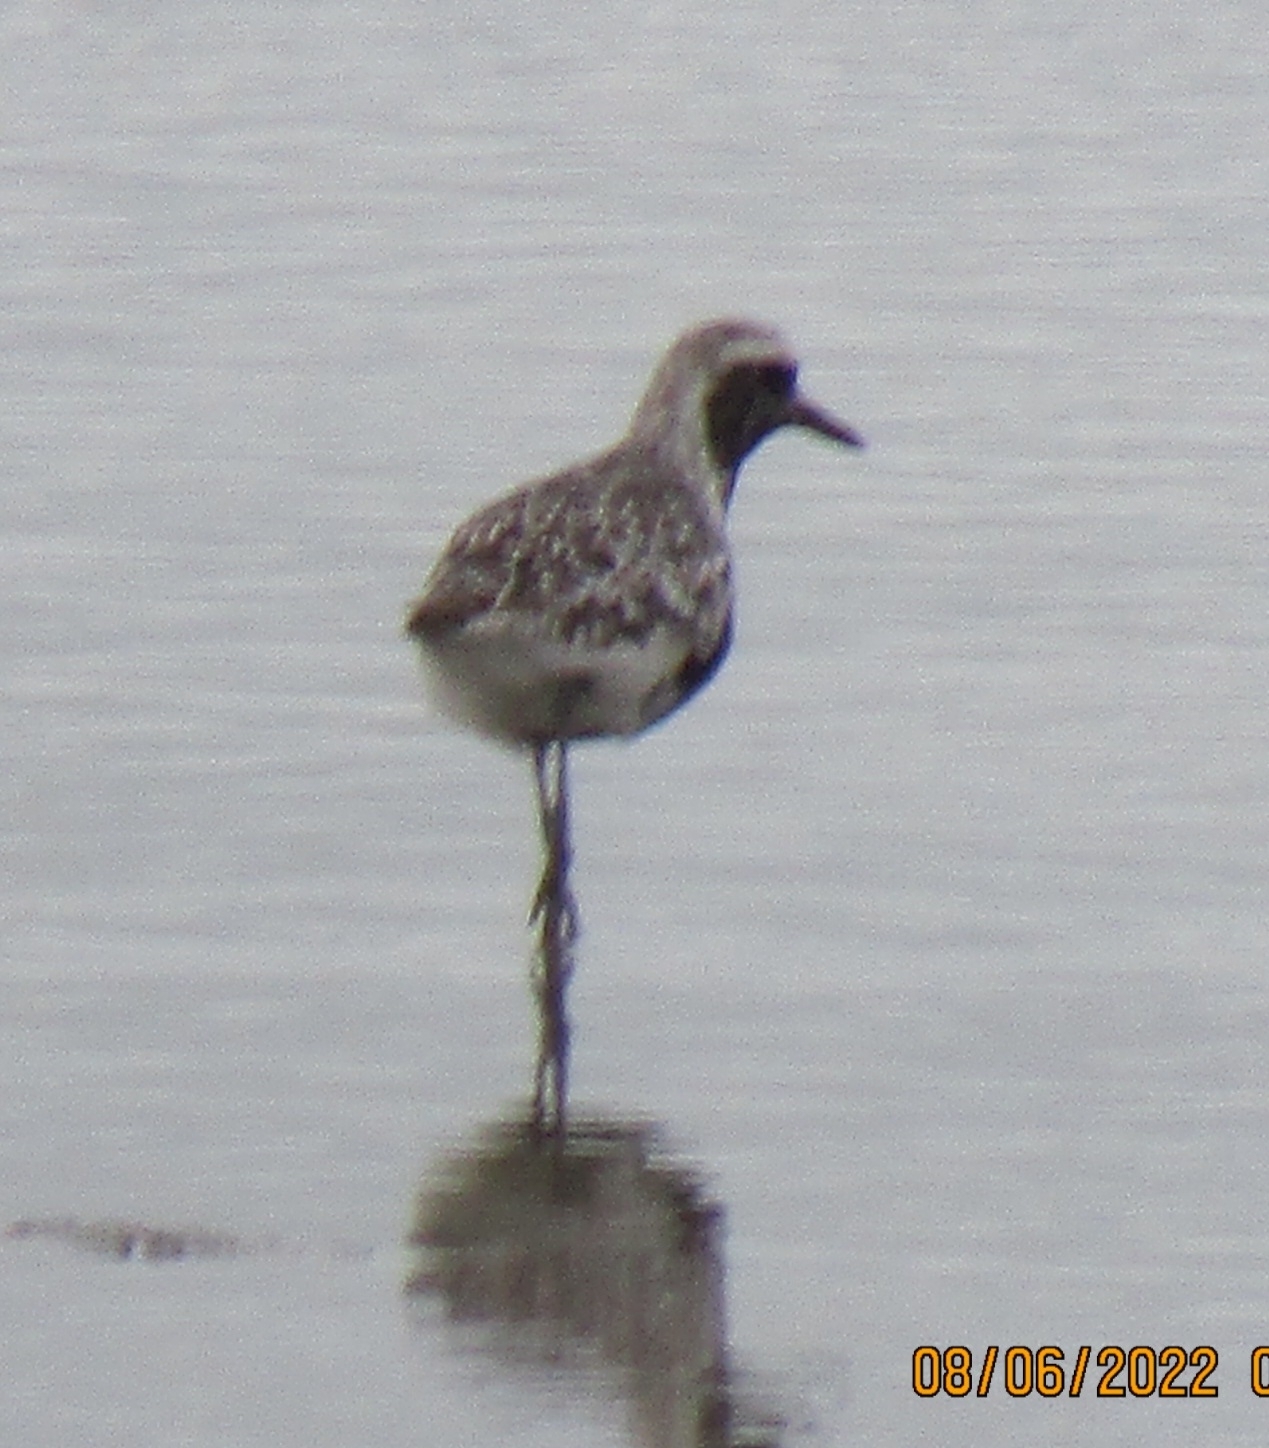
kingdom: Animalia
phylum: Chordata
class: Aves
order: Charadriiformes
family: Charadriidae
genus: Pluvialis
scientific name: Pluvialis squatarola
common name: Grey plover
